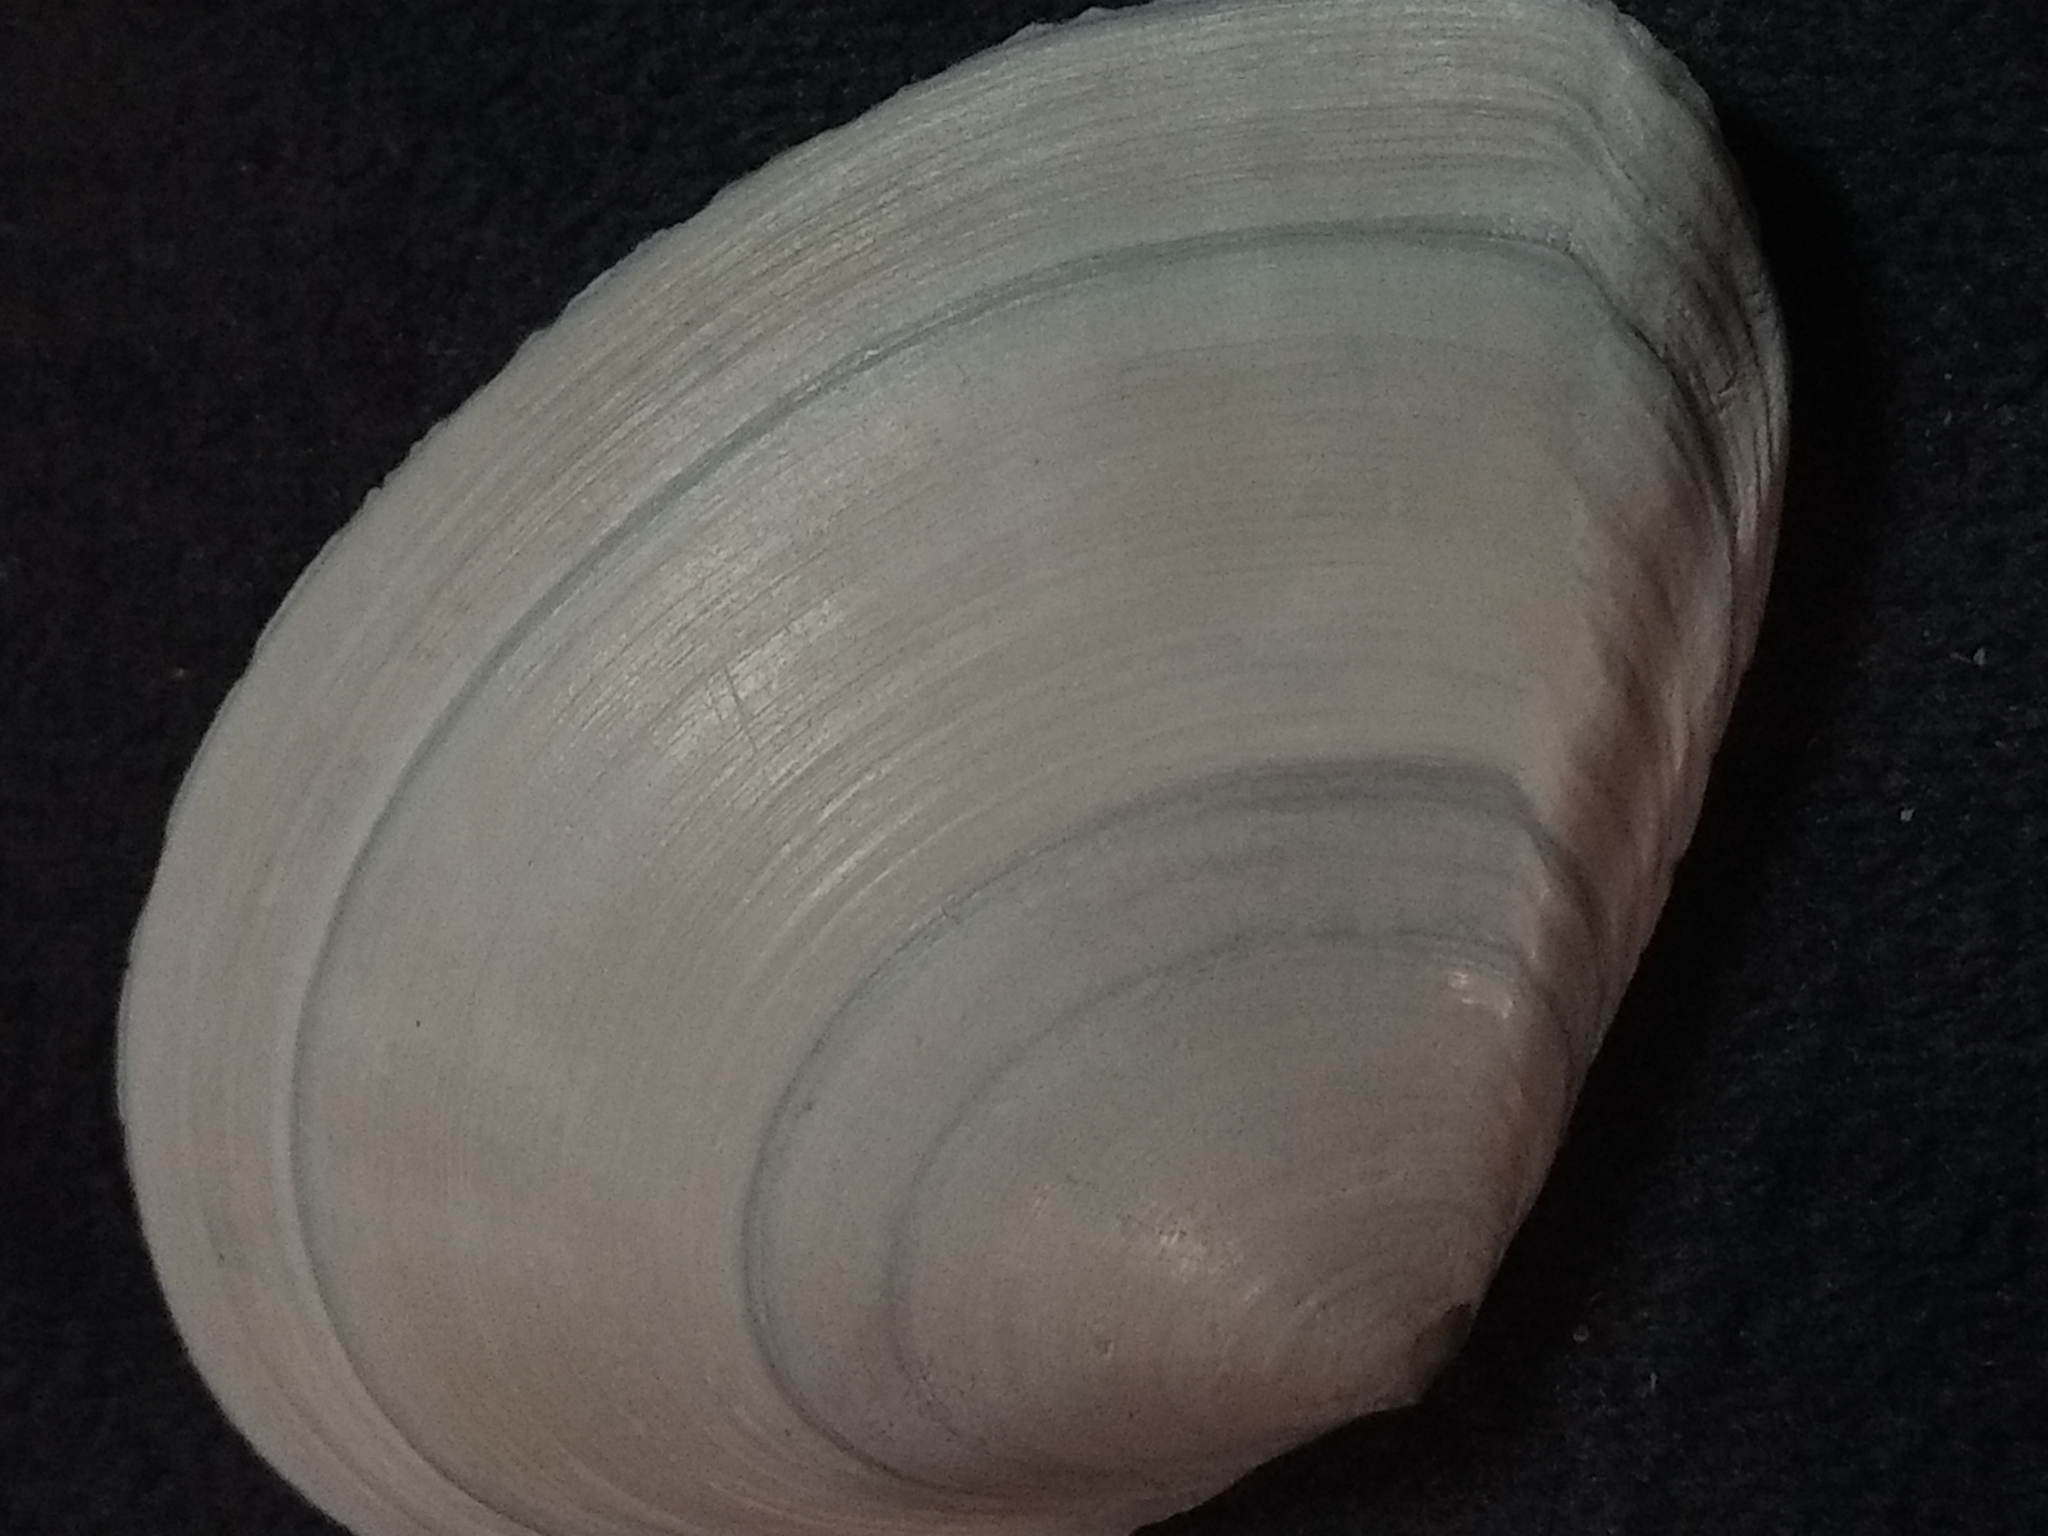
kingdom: Animalia
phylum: Mollusca
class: Bivalvia
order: Cardiida
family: Tellinidae
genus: Macoma
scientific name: Macoma nasuta
